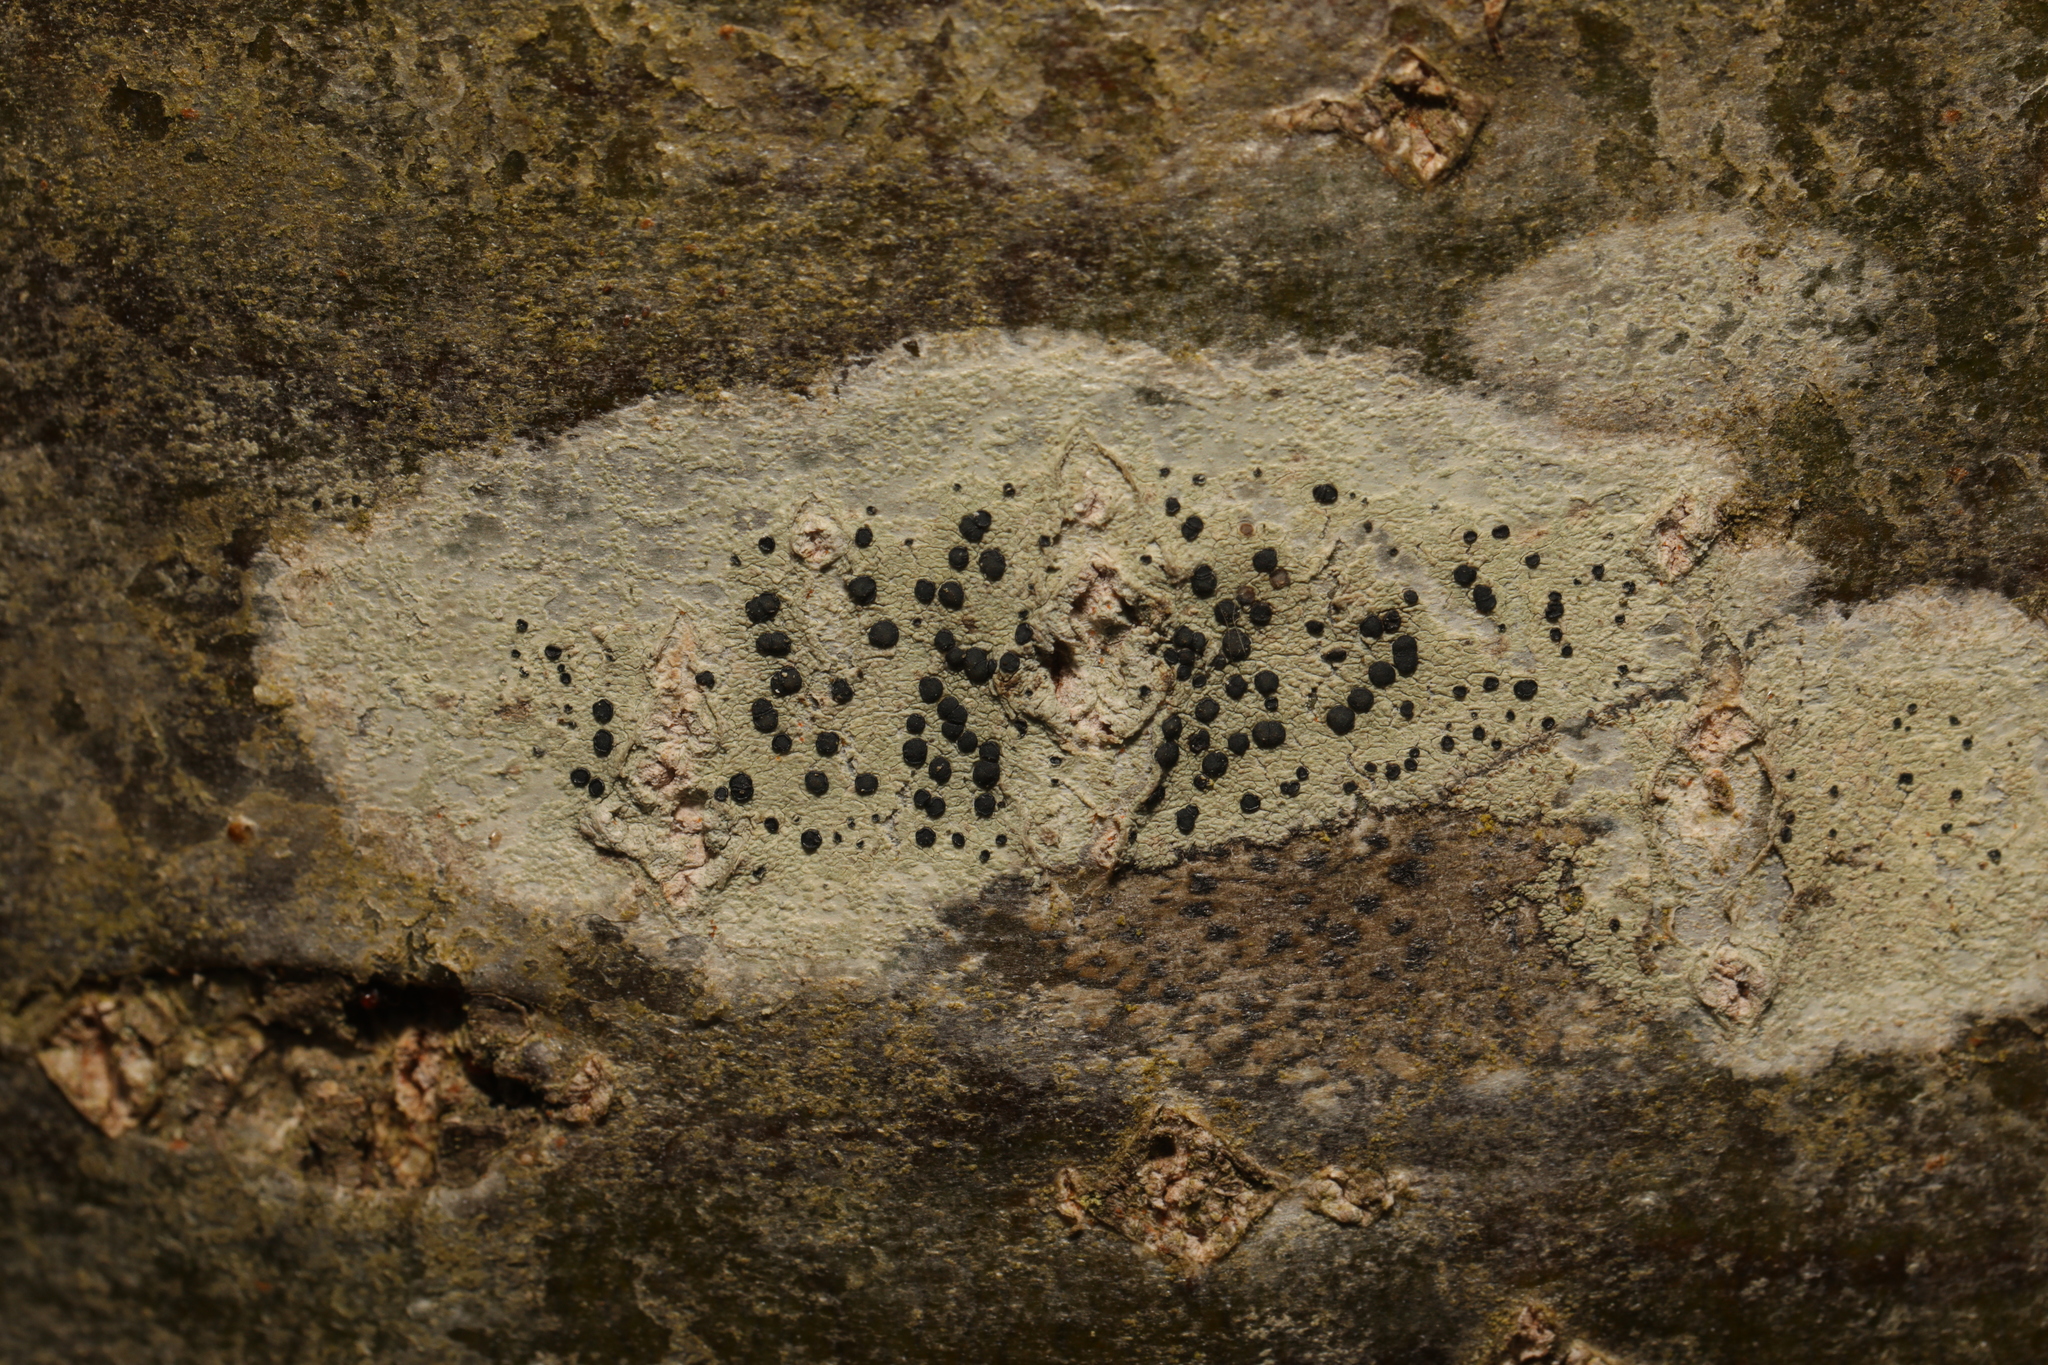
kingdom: Fungi
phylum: Ascomycota
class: Lecanoromycetes
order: Lecanorales
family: Lecanoraceae
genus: Lecidella
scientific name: Lecidella elaeochroma
